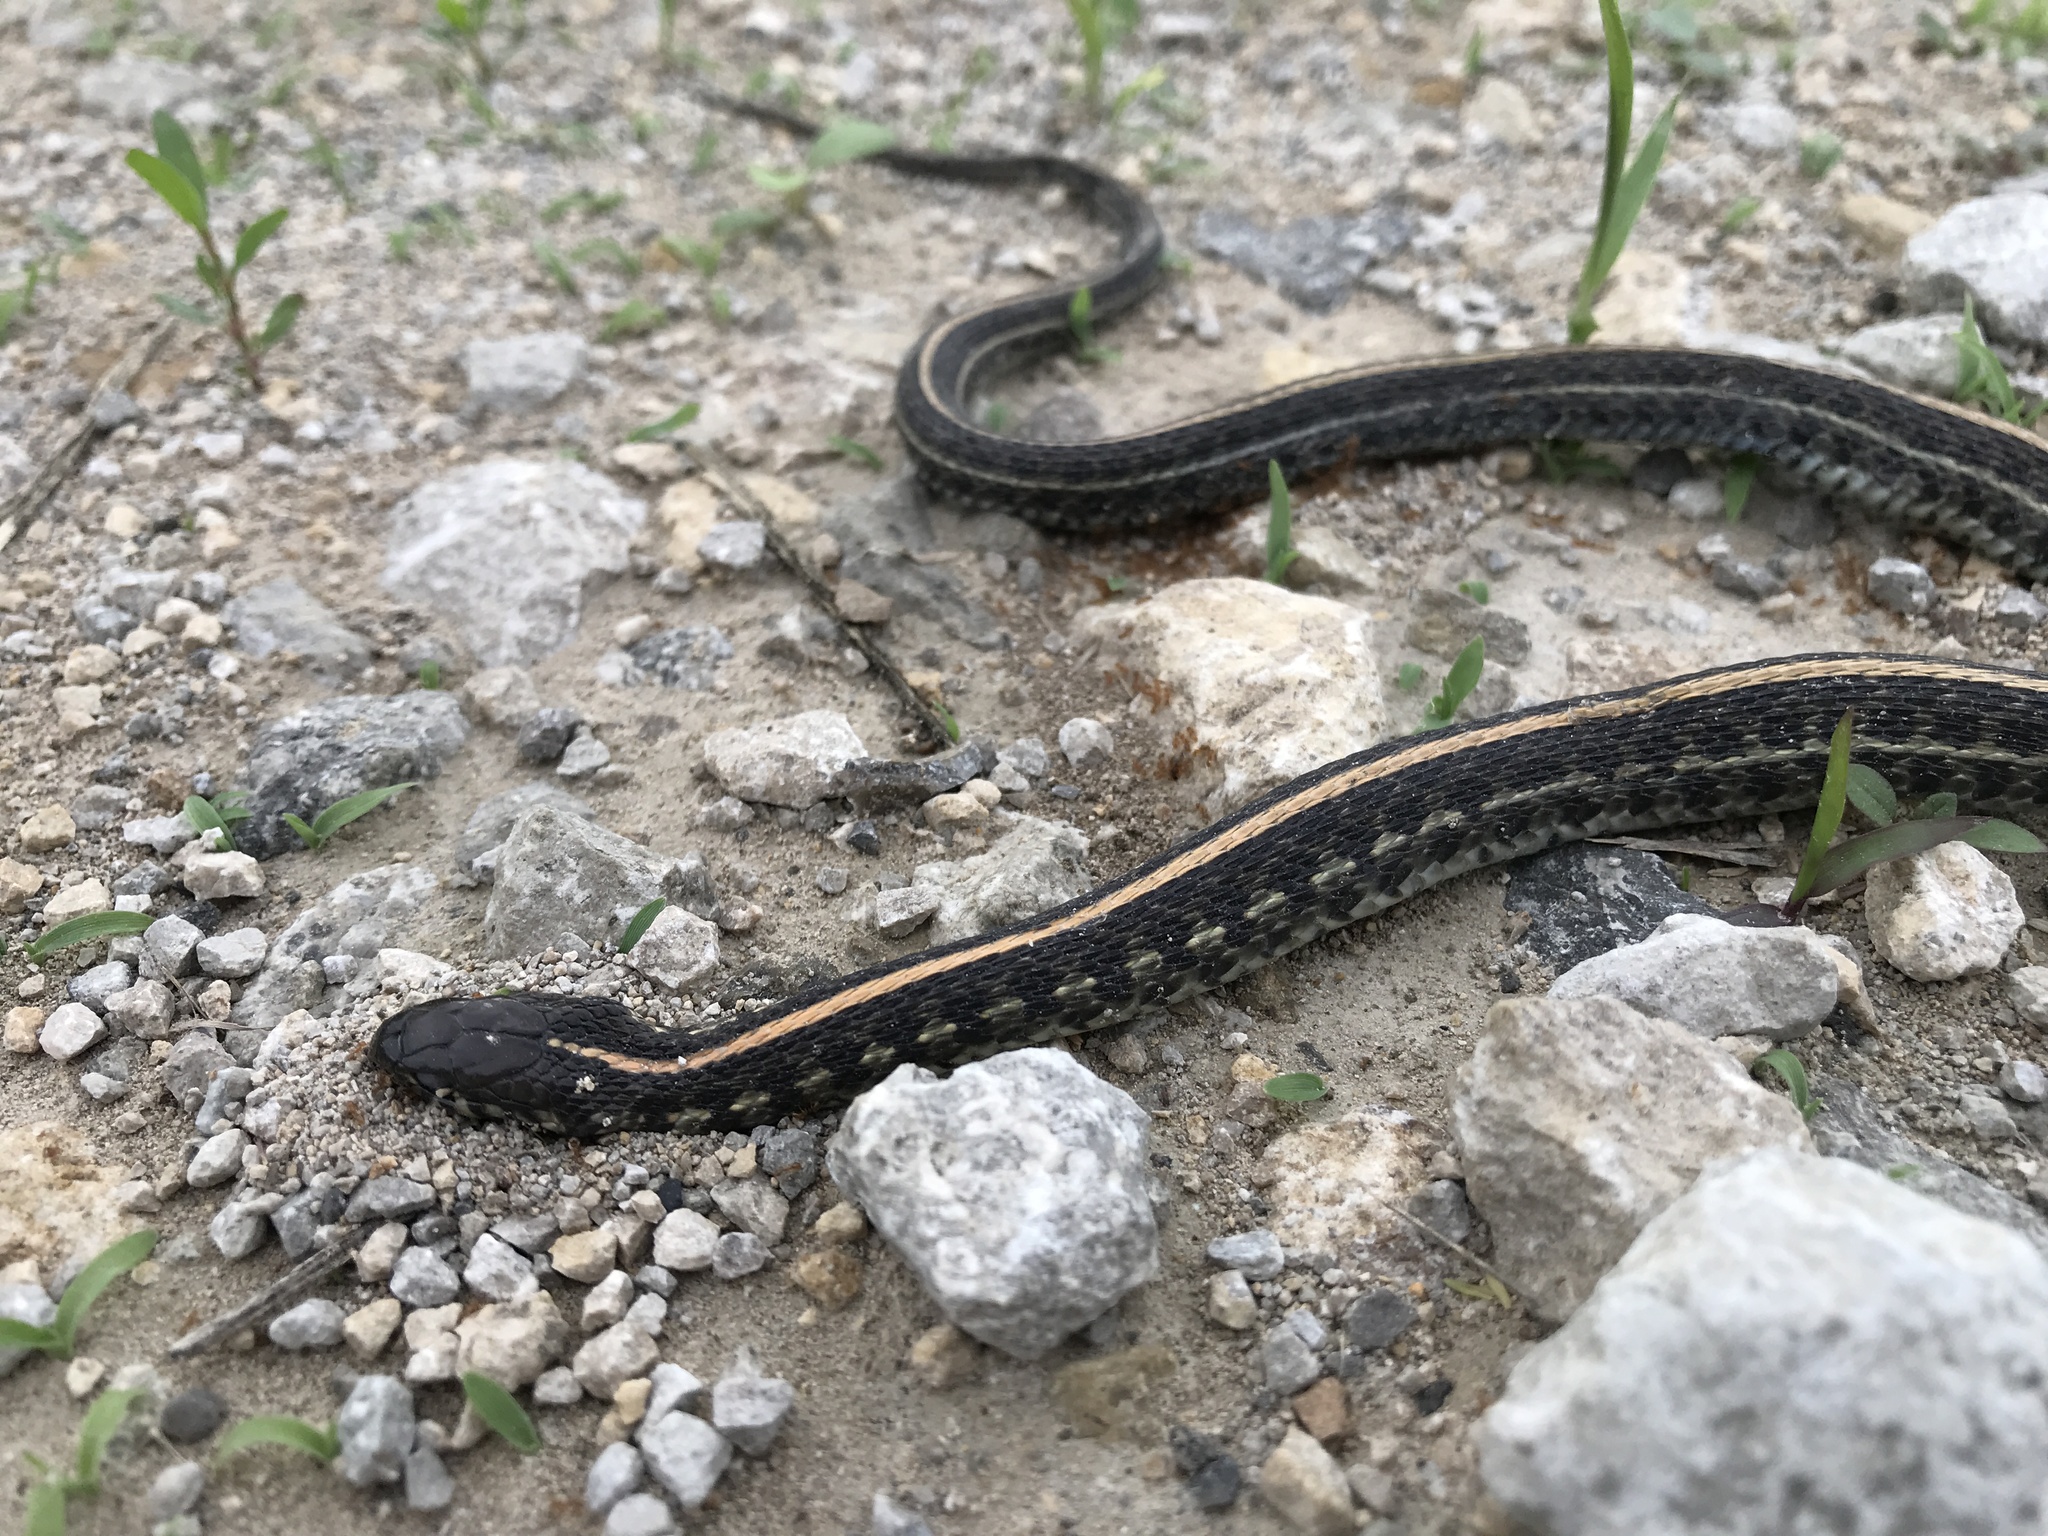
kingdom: Animalia
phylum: Chordata
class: Squamata
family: Colubridae
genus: Thamnophis
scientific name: Thamnophis radix
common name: Plains garter snake
